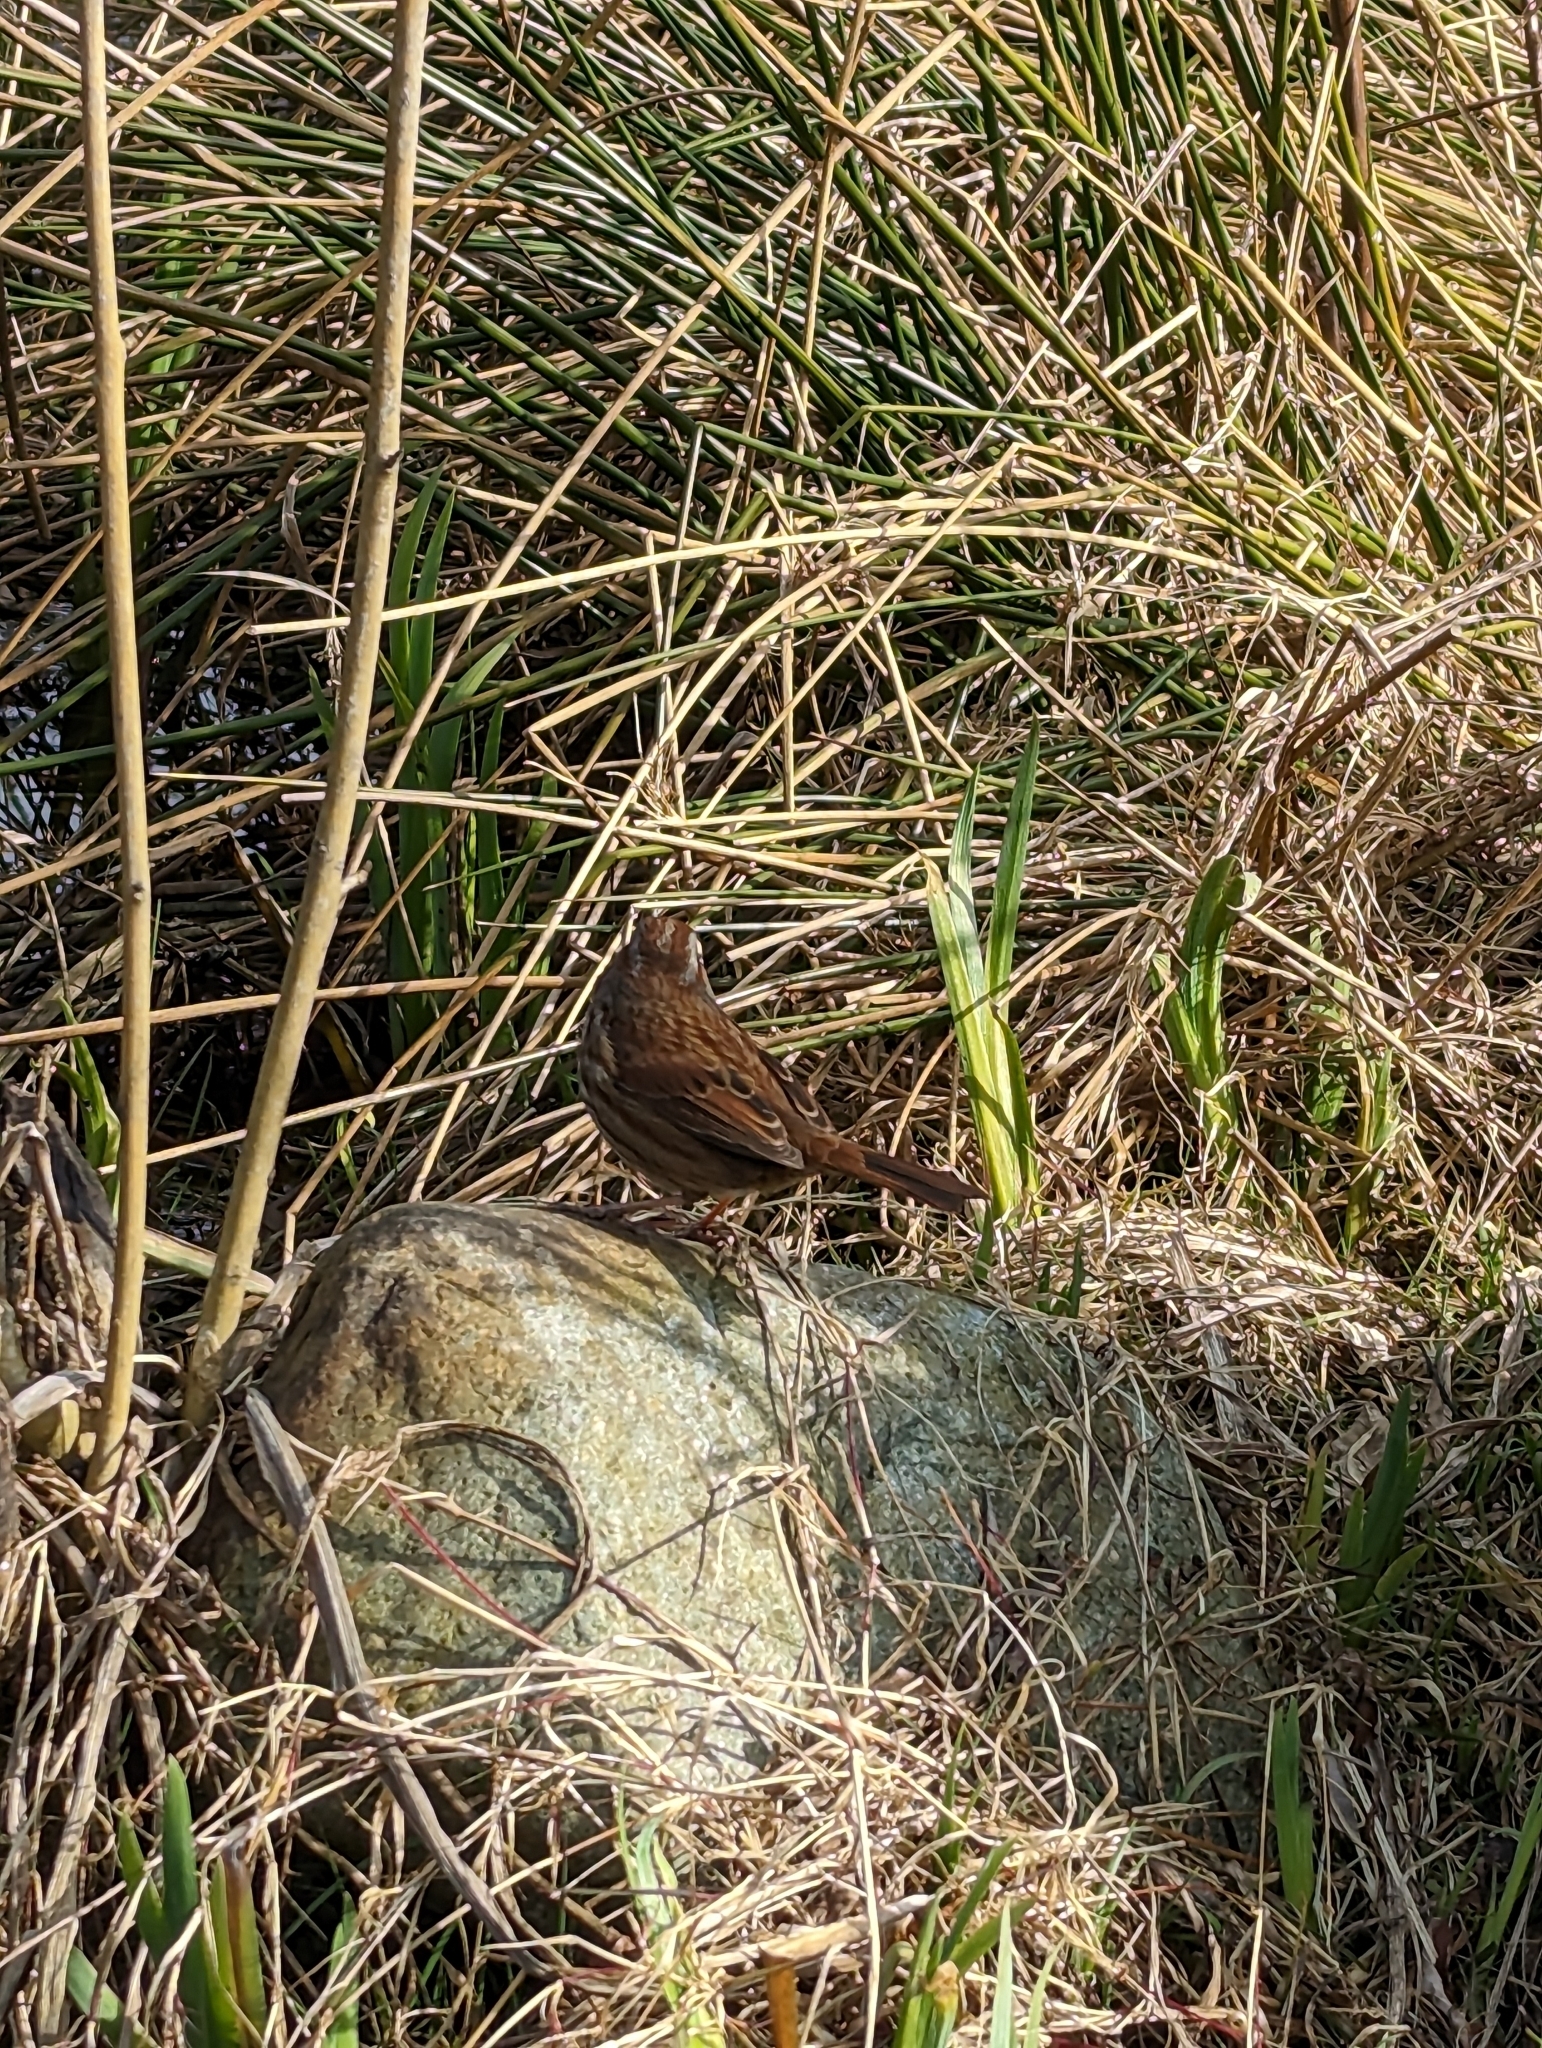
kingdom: Animalia
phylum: Chordata
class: Aves
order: Passeriformes
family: Passerellidae
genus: Melospiza
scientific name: Melospiza melodia
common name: Song sparrow
